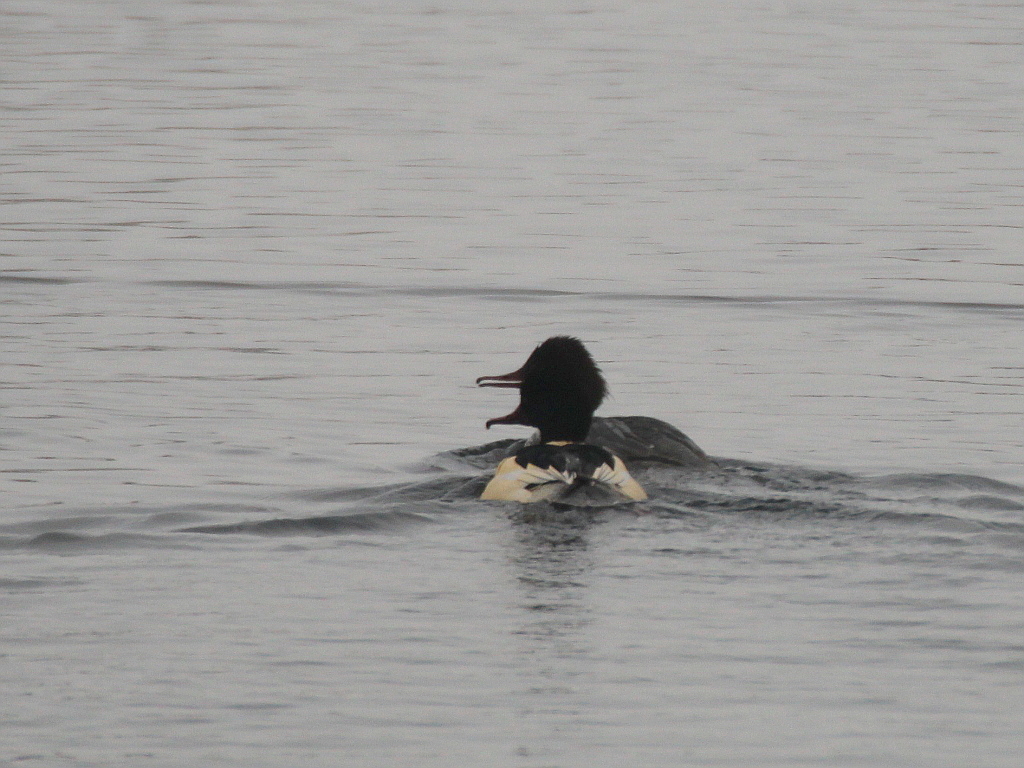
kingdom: Animalia
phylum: Chordata
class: Aves
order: Anseriformes
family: Anatidae
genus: Mergus
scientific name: Mergus merganser
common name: Common merganser
